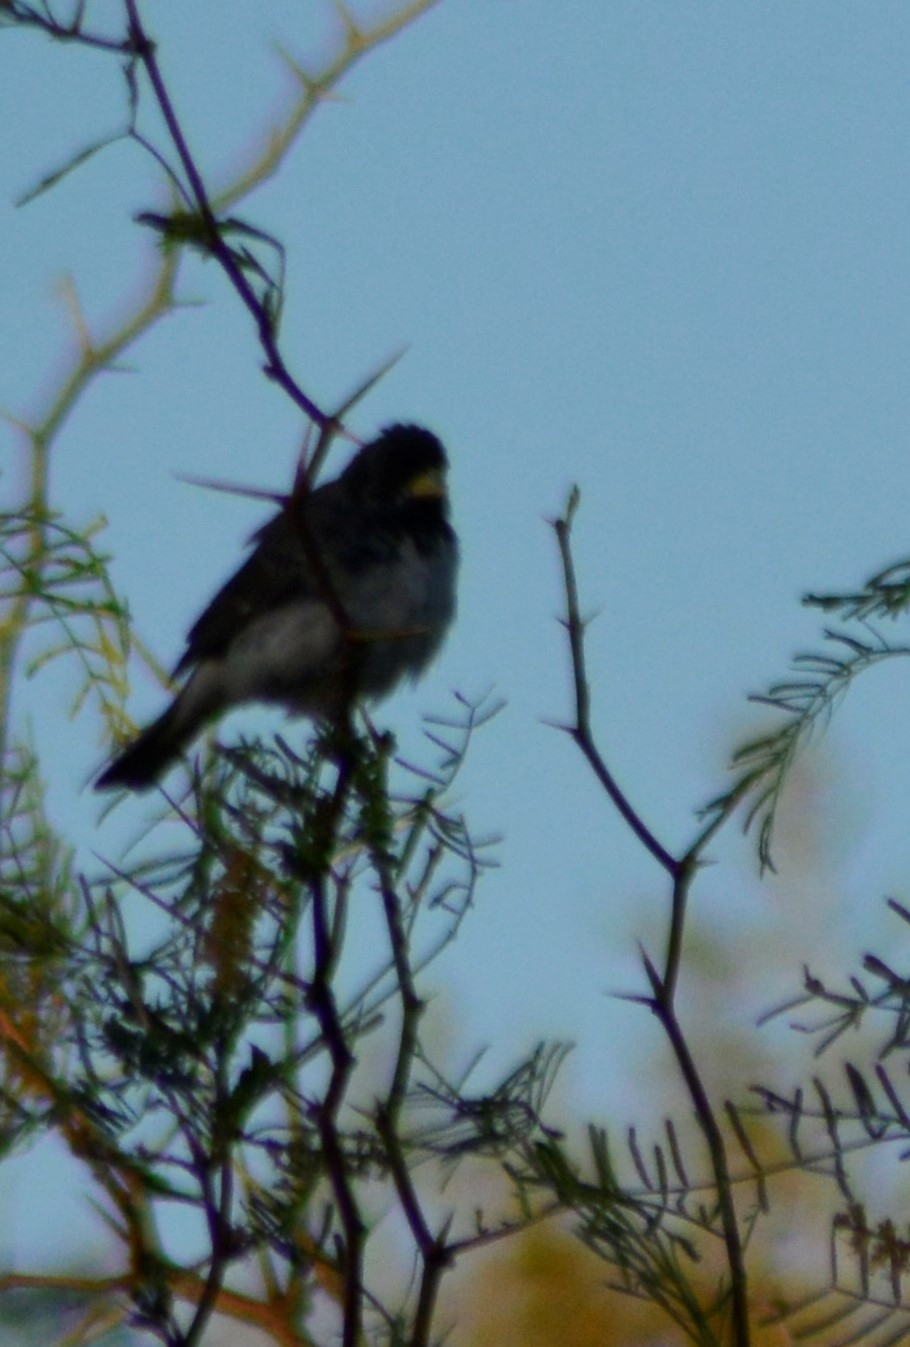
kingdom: Animalia
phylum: Chordata
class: Aves
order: Passeriformes
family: Thraupidae
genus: Sporophila
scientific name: Sporophila caerulescens
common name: Double-collared seedeater
